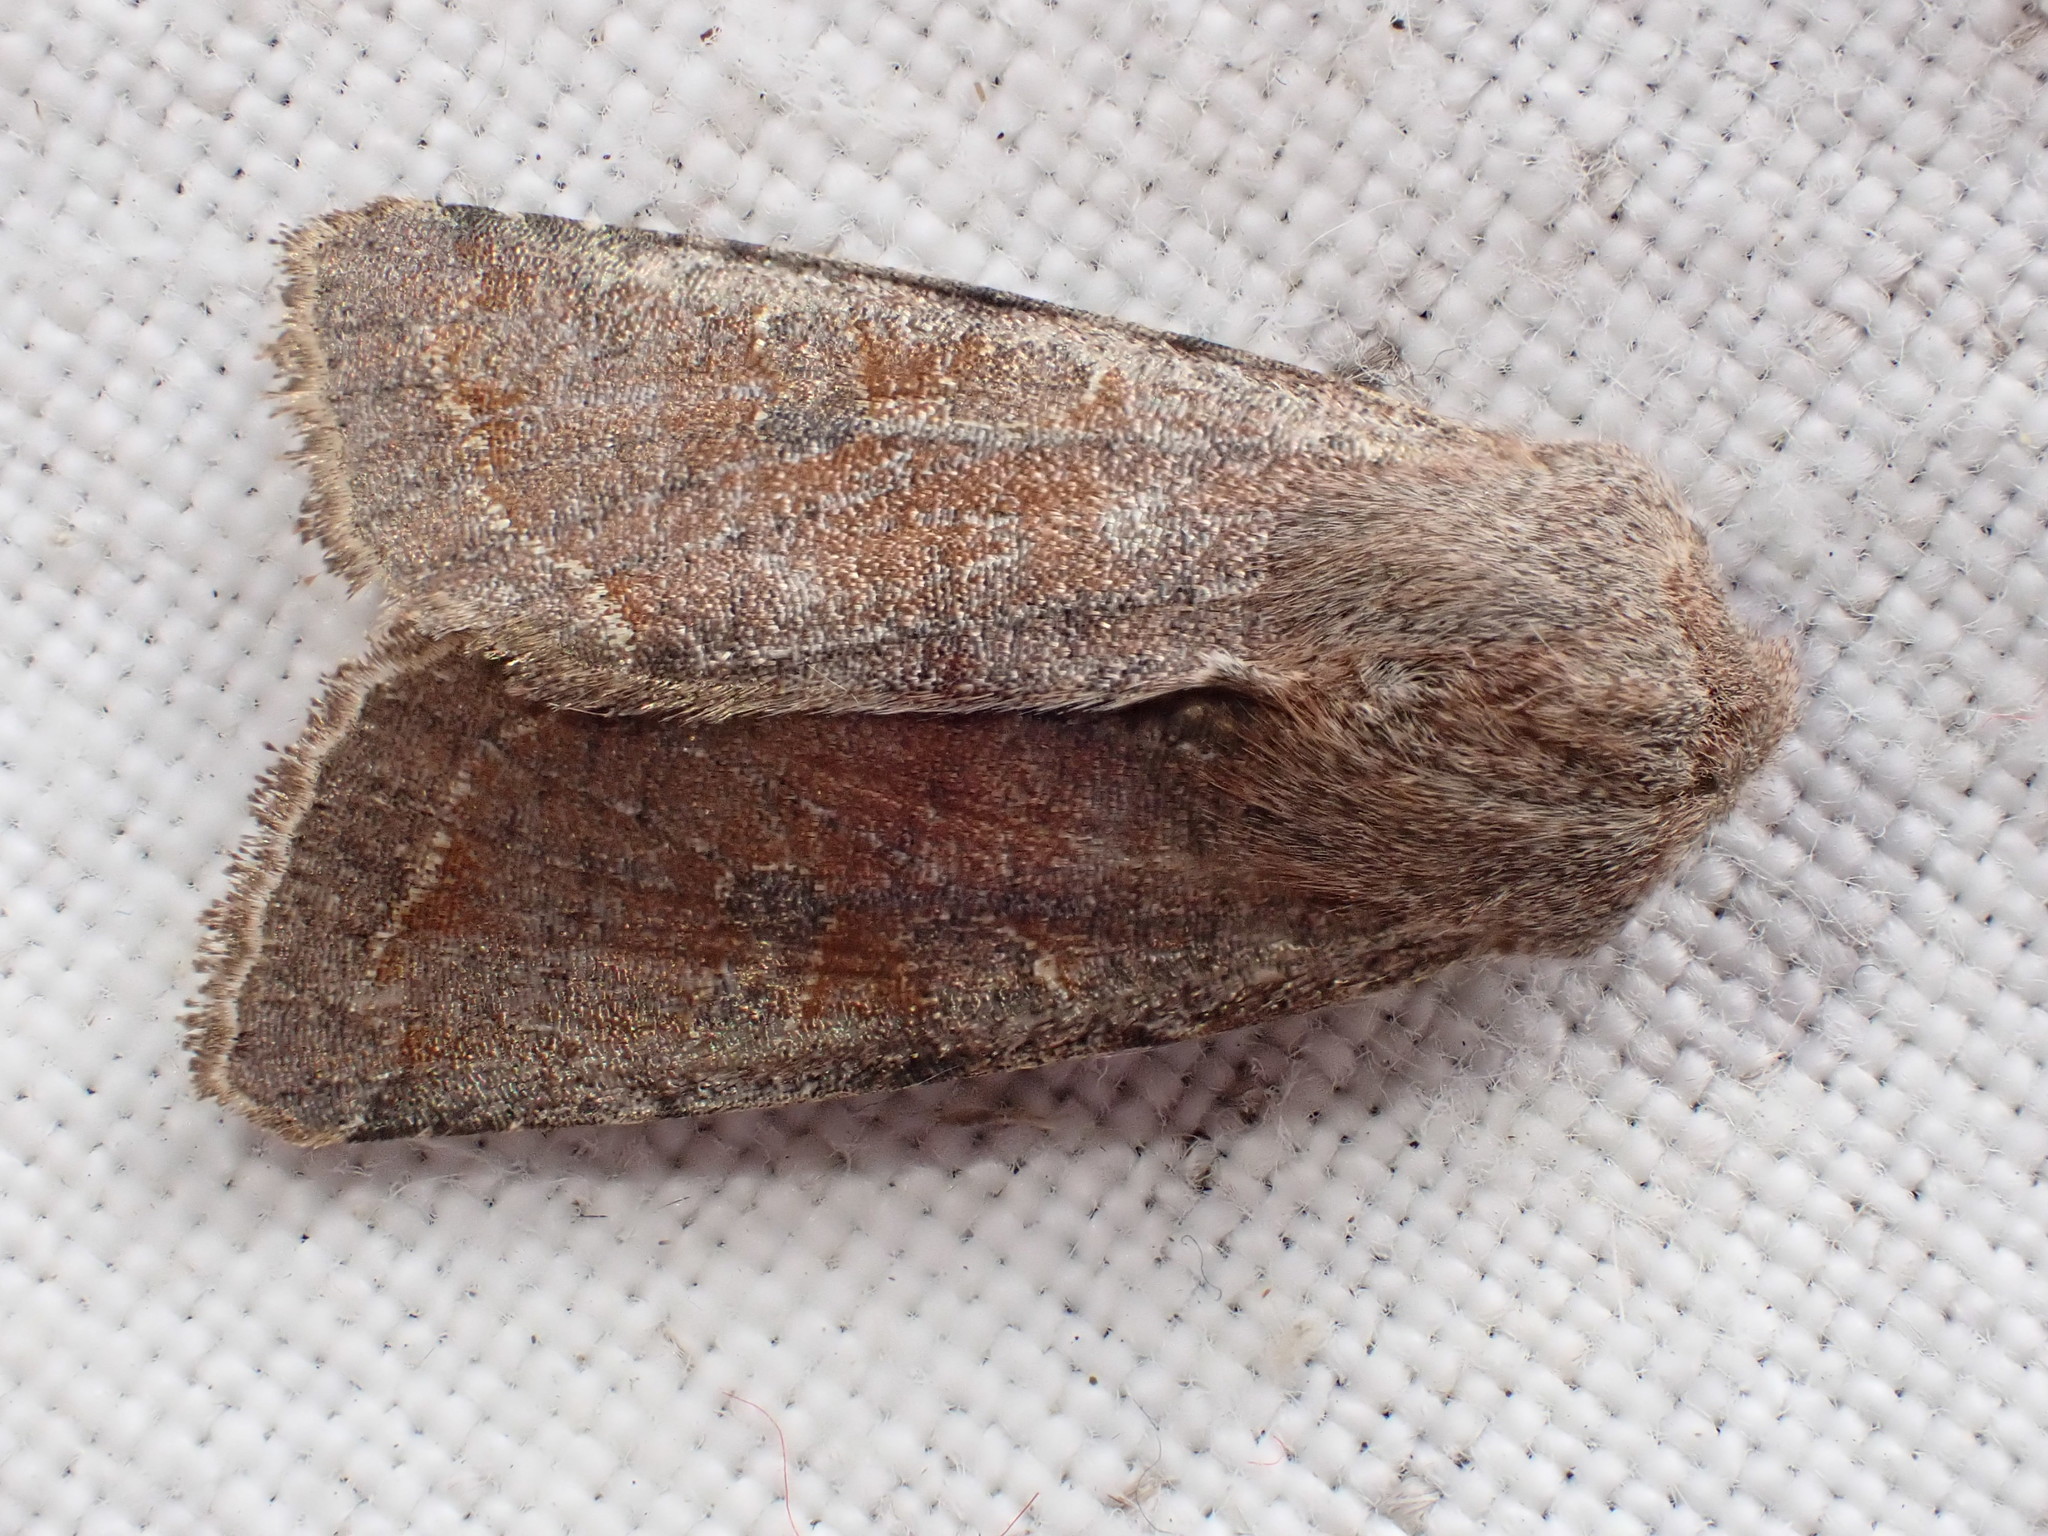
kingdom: Animalia
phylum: Arthropoda
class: Insecta
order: Lepidoptera
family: Noctuidae
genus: Orthosia
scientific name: Orthosia incerta
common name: Clouded drab
